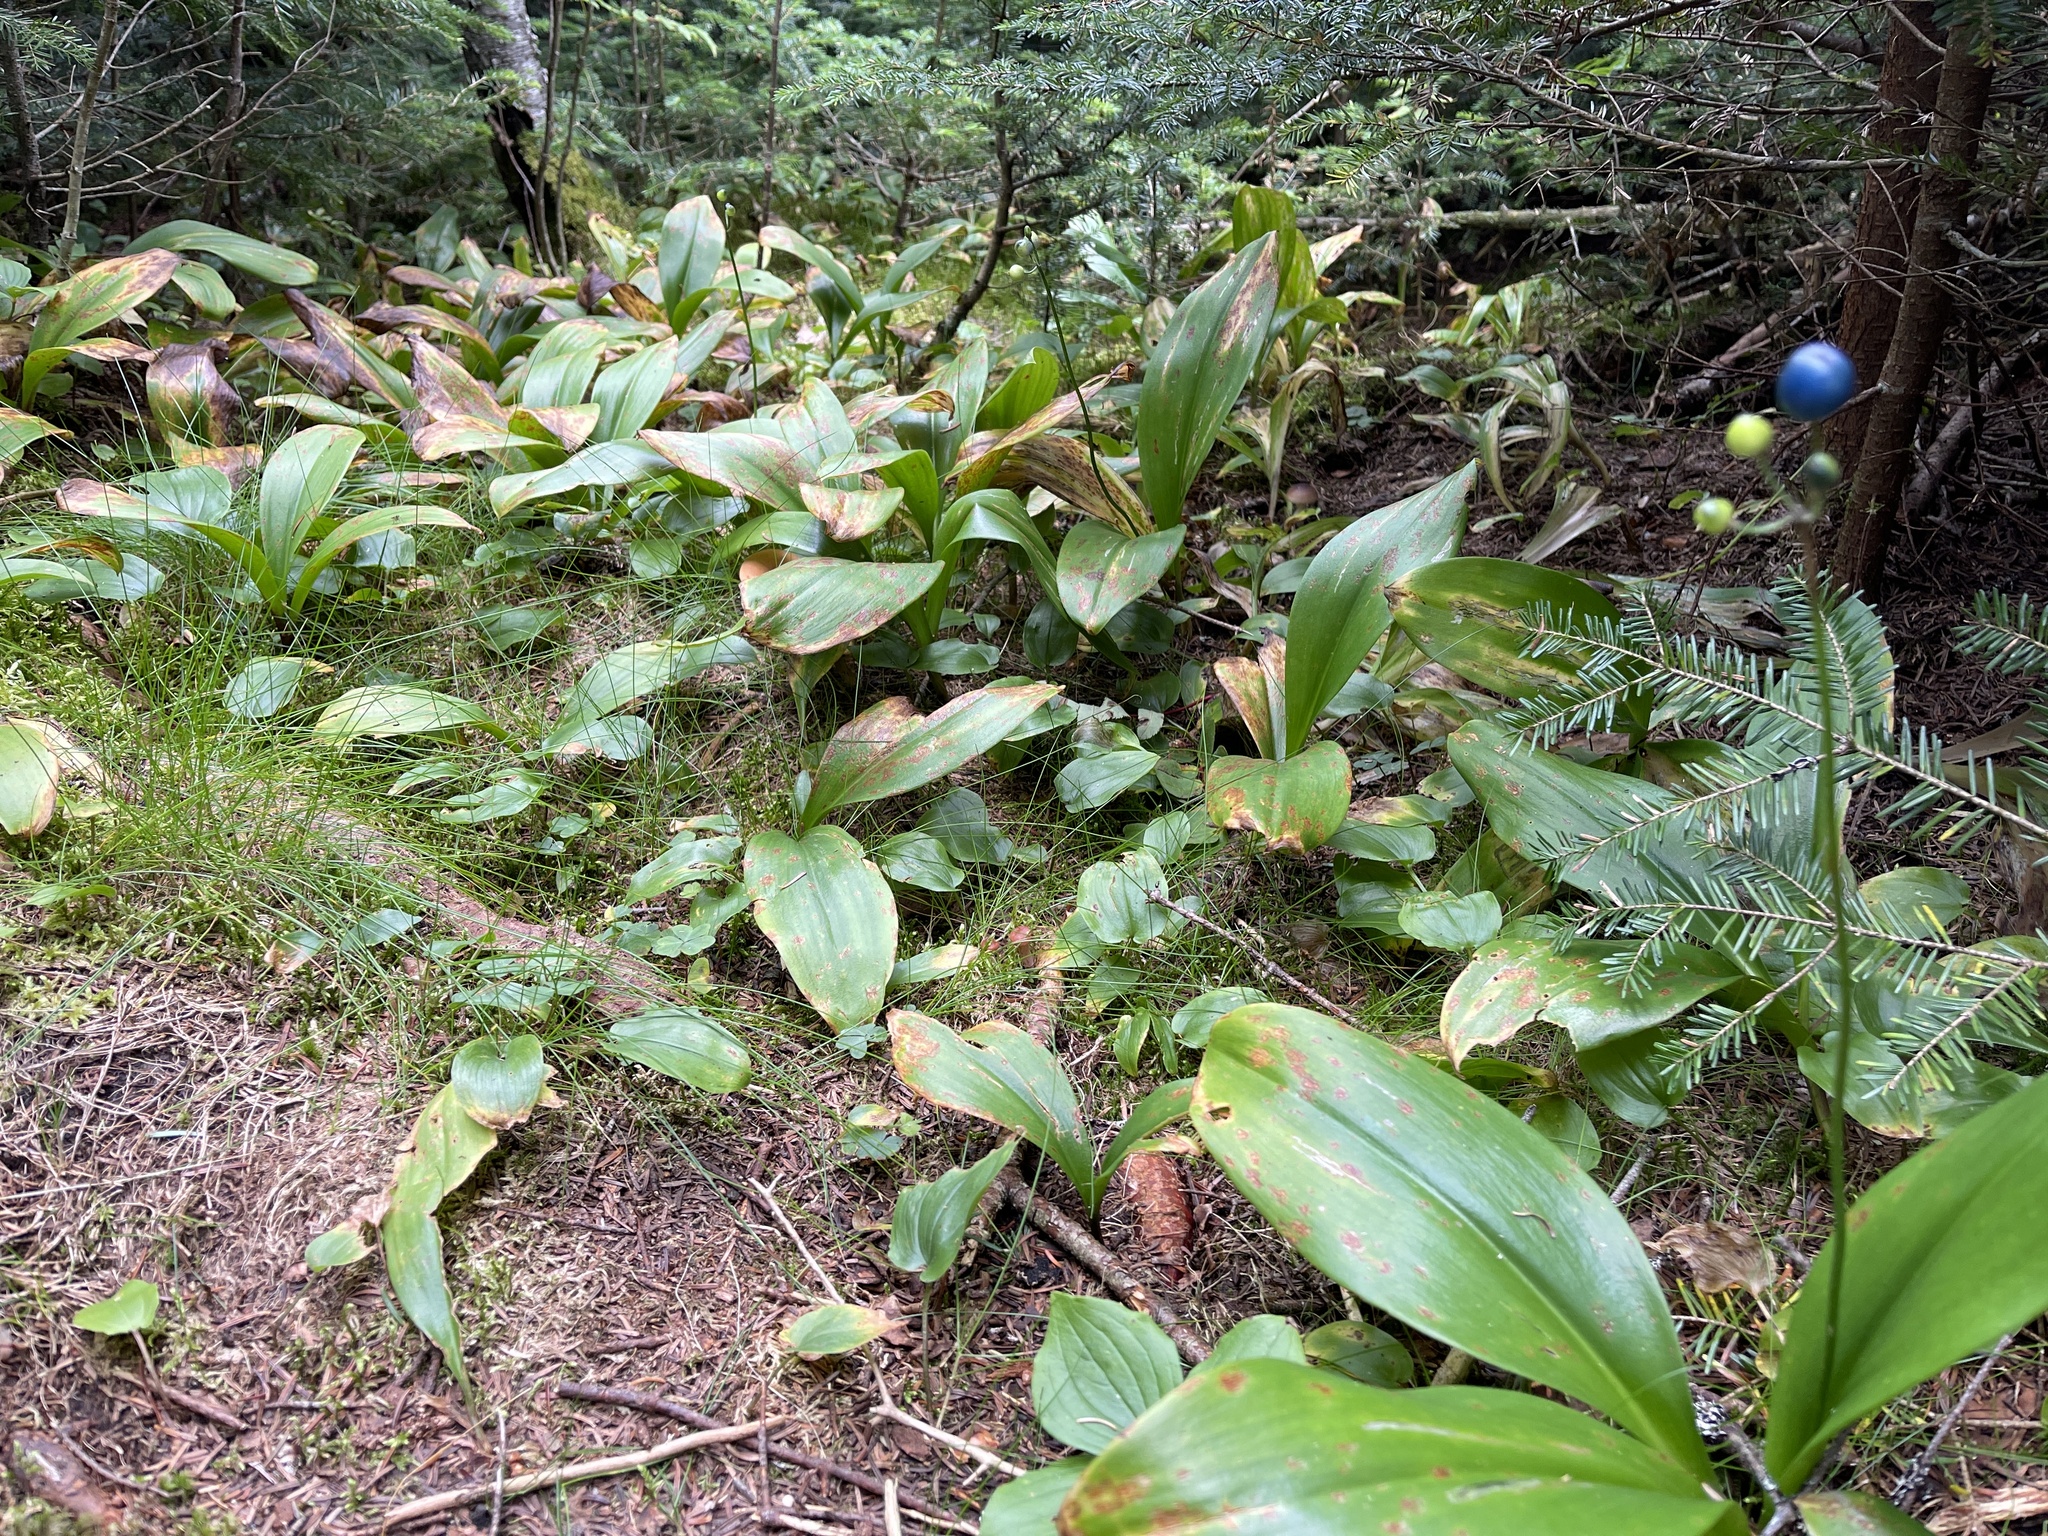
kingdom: Plantae
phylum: Tracheophyta
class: Liliopsida
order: Liliales
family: Liliaceae
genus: Clintonia
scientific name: Clintonia borealis
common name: Yellow clintonia
